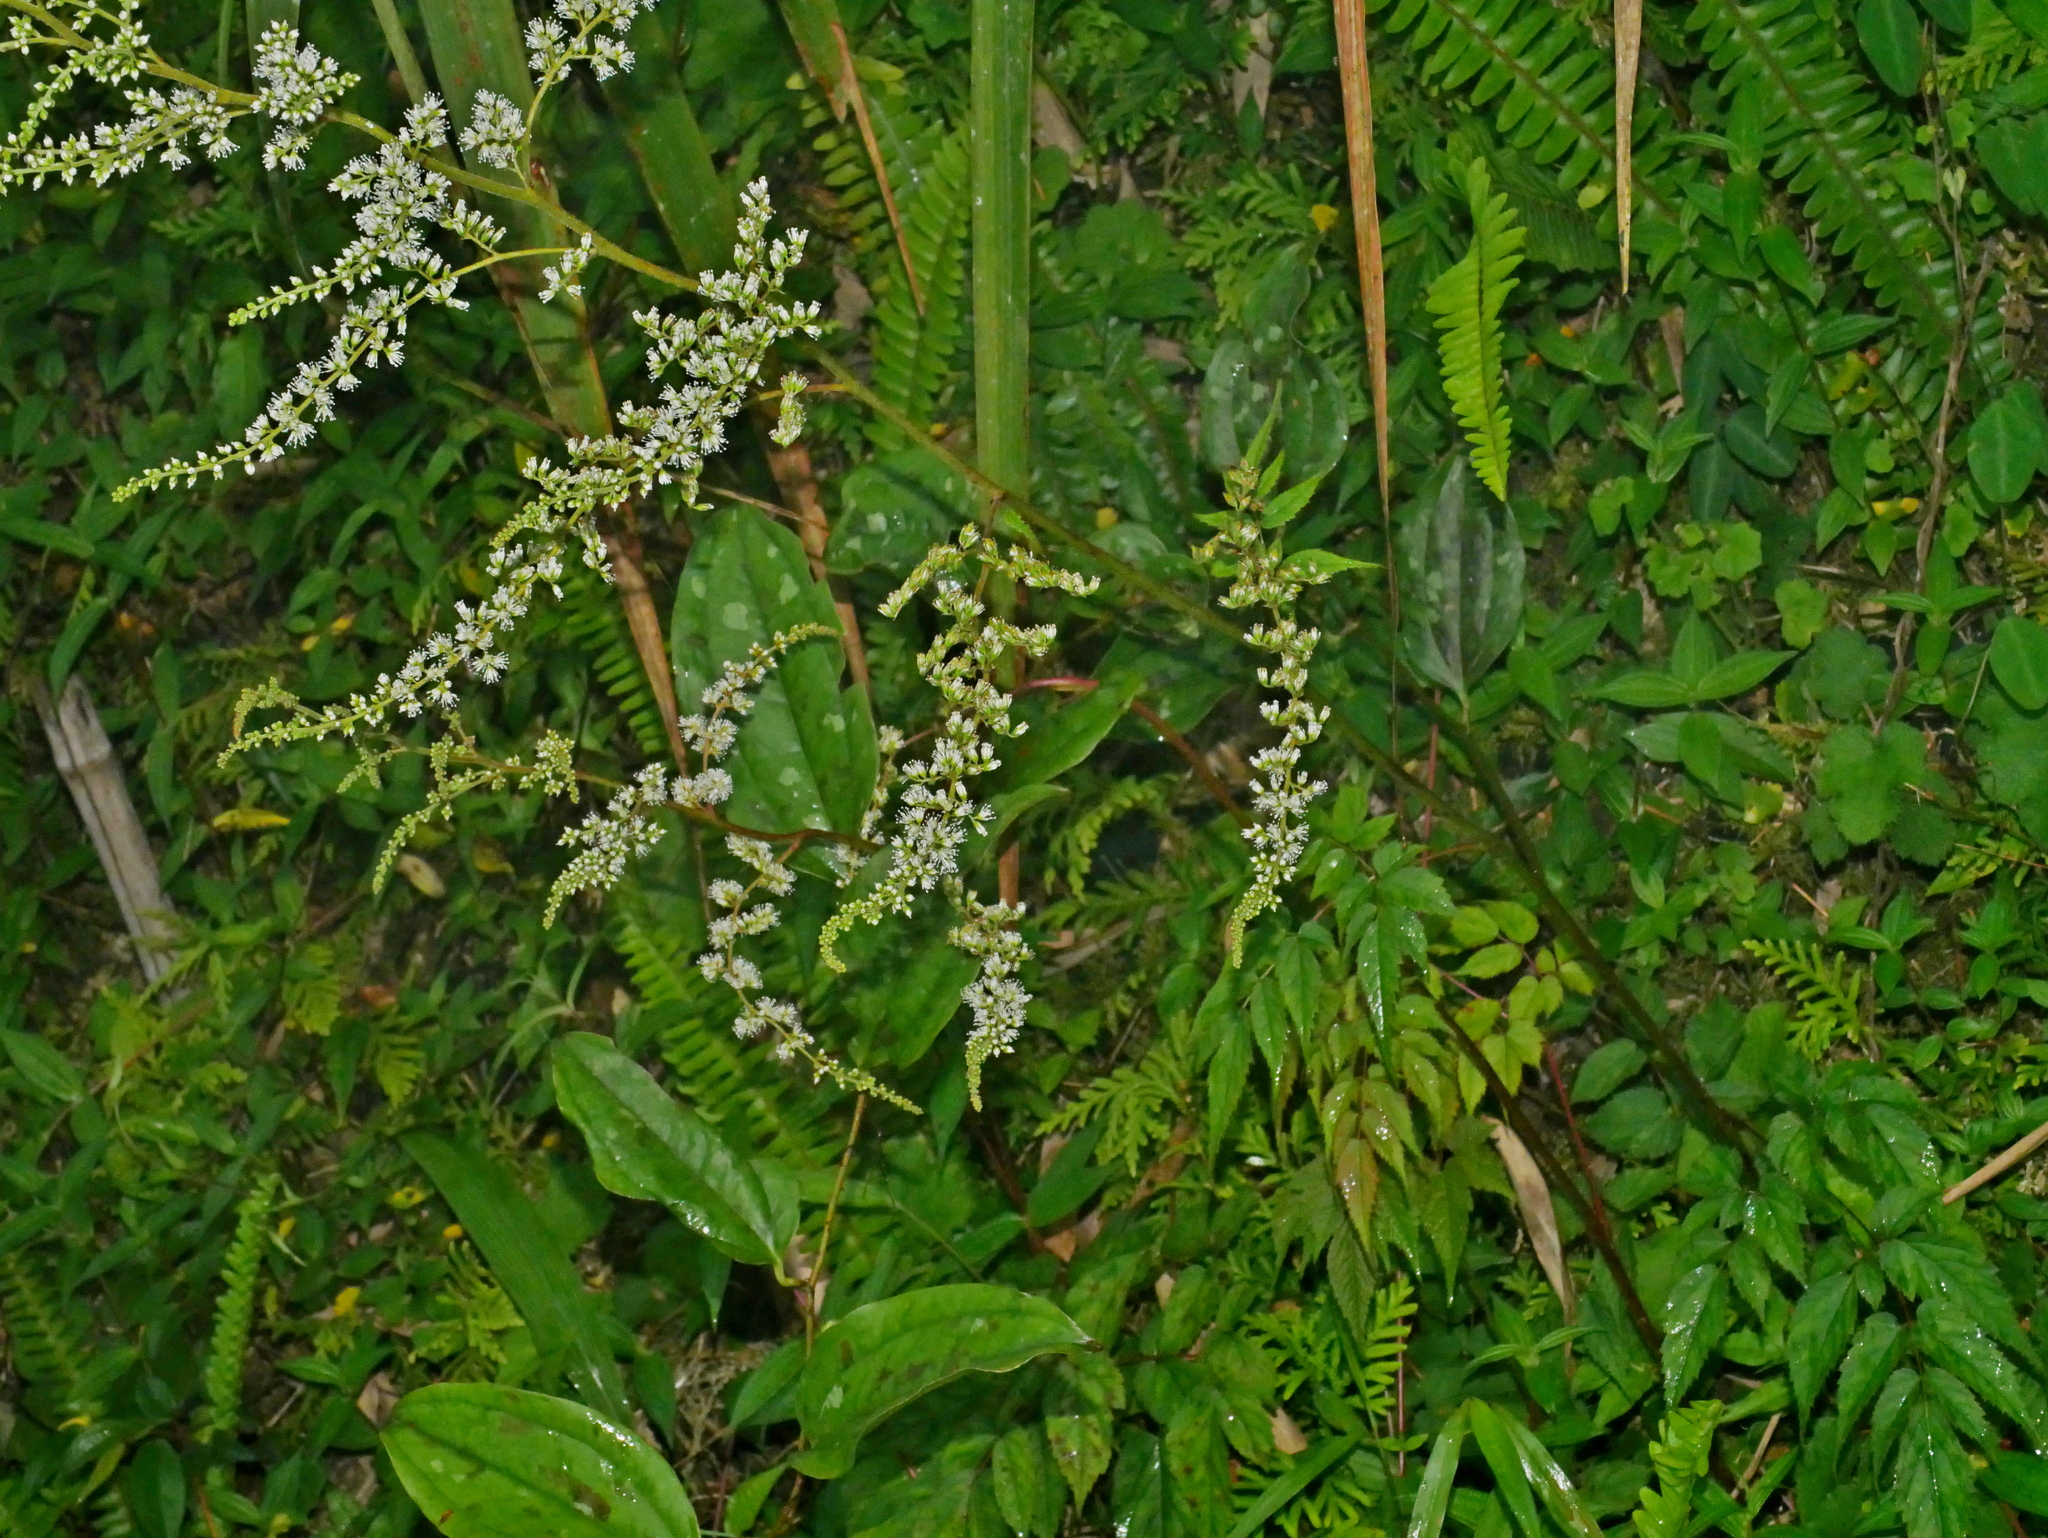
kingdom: Plantae
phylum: Tracheophyta
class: Magnoliopsida
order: Saxifragales
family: Saxifragaceae
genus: Astilbe
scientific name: Astilbe longicarpa
